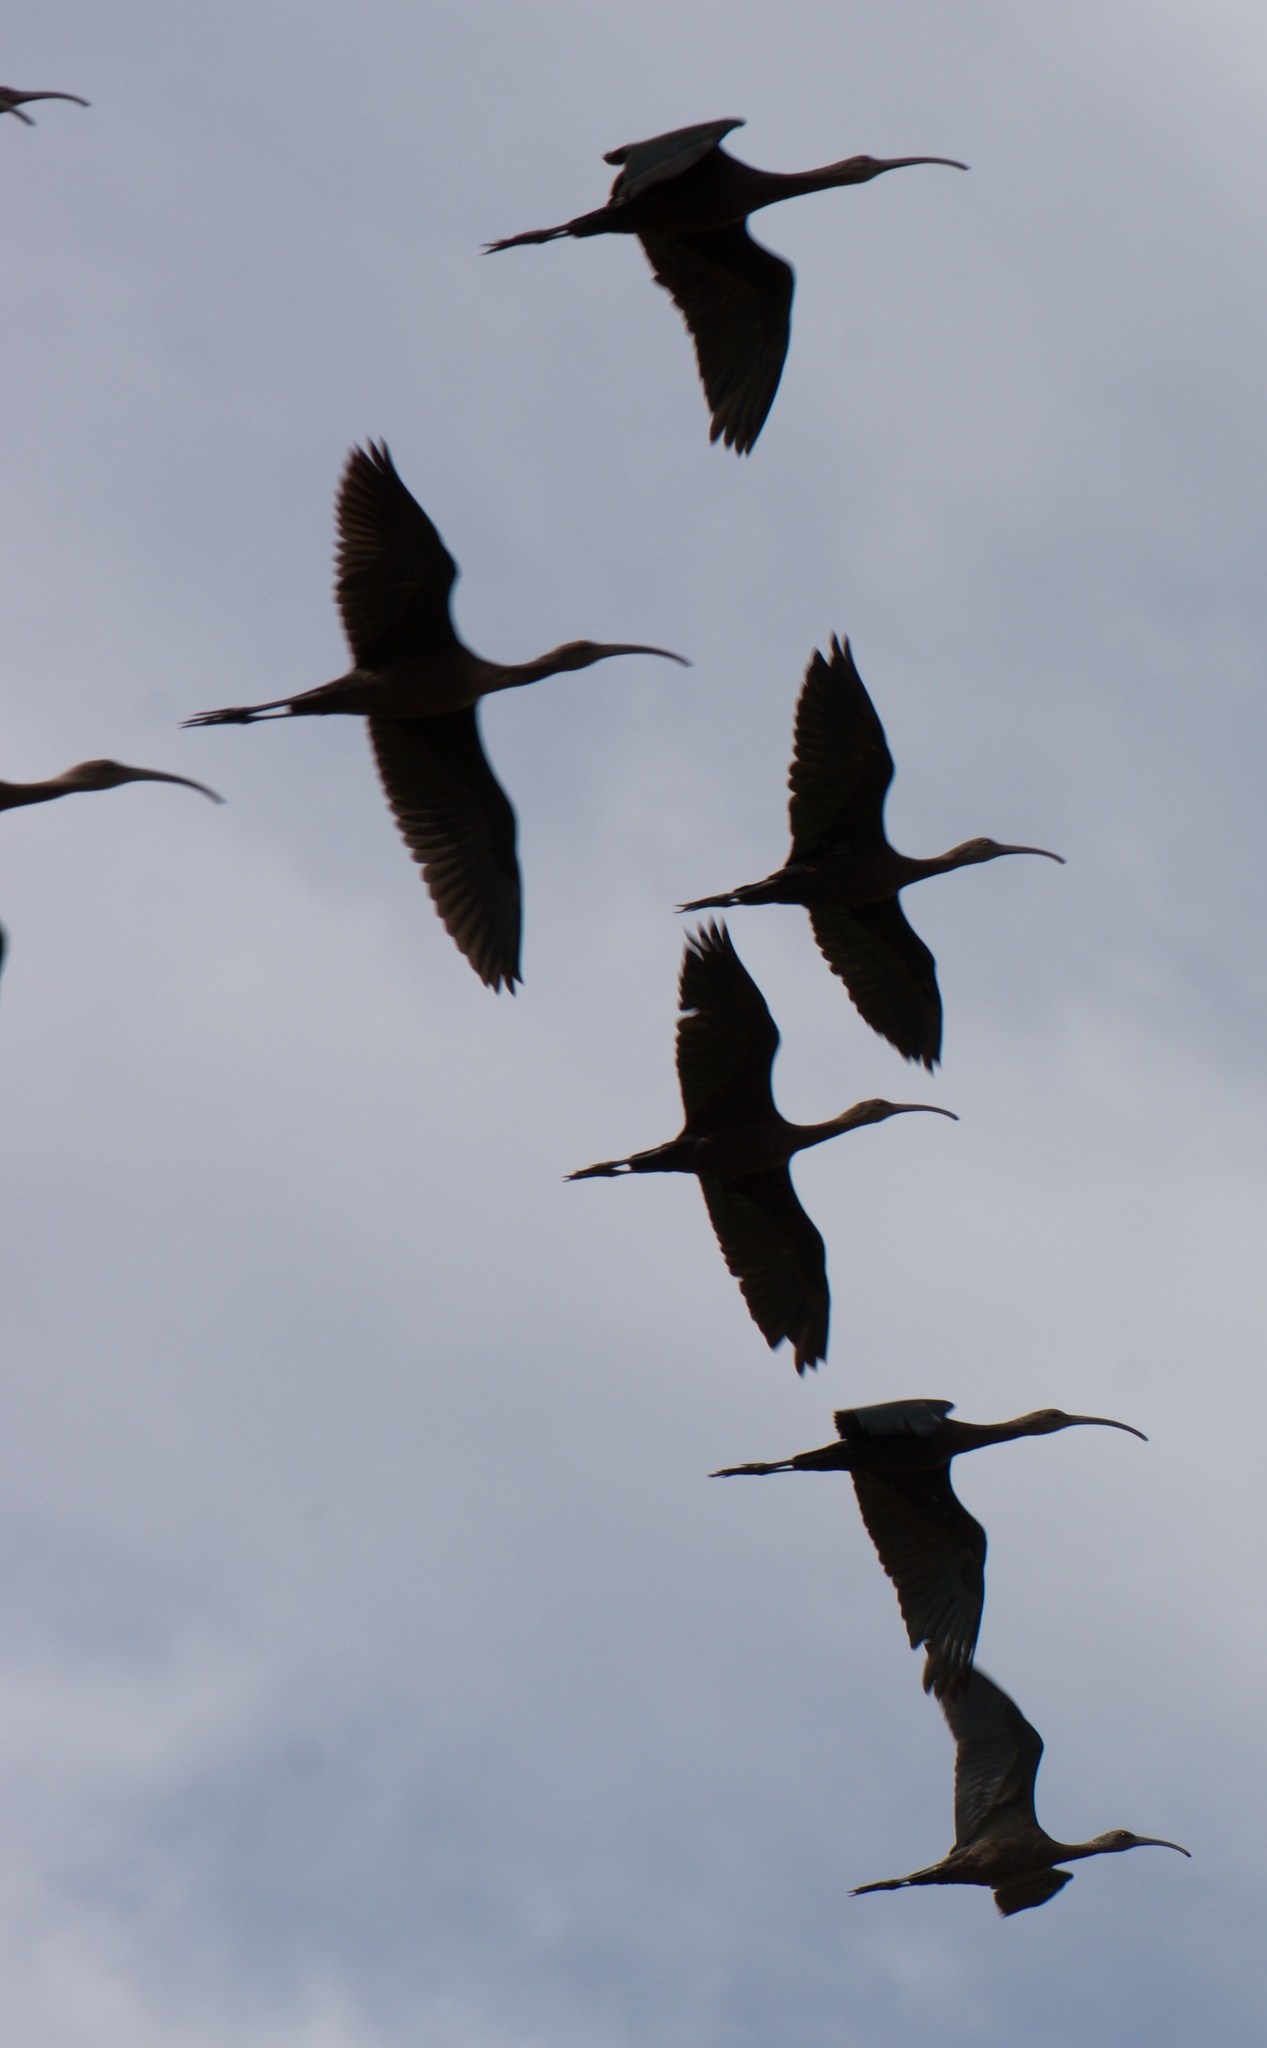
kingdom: Animalia
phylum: Chordata
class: Aves
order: Pelecaniformes
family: Threskiornithidae
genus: Plegadis
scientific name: Plegadis chihi
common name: White-faced ibis
